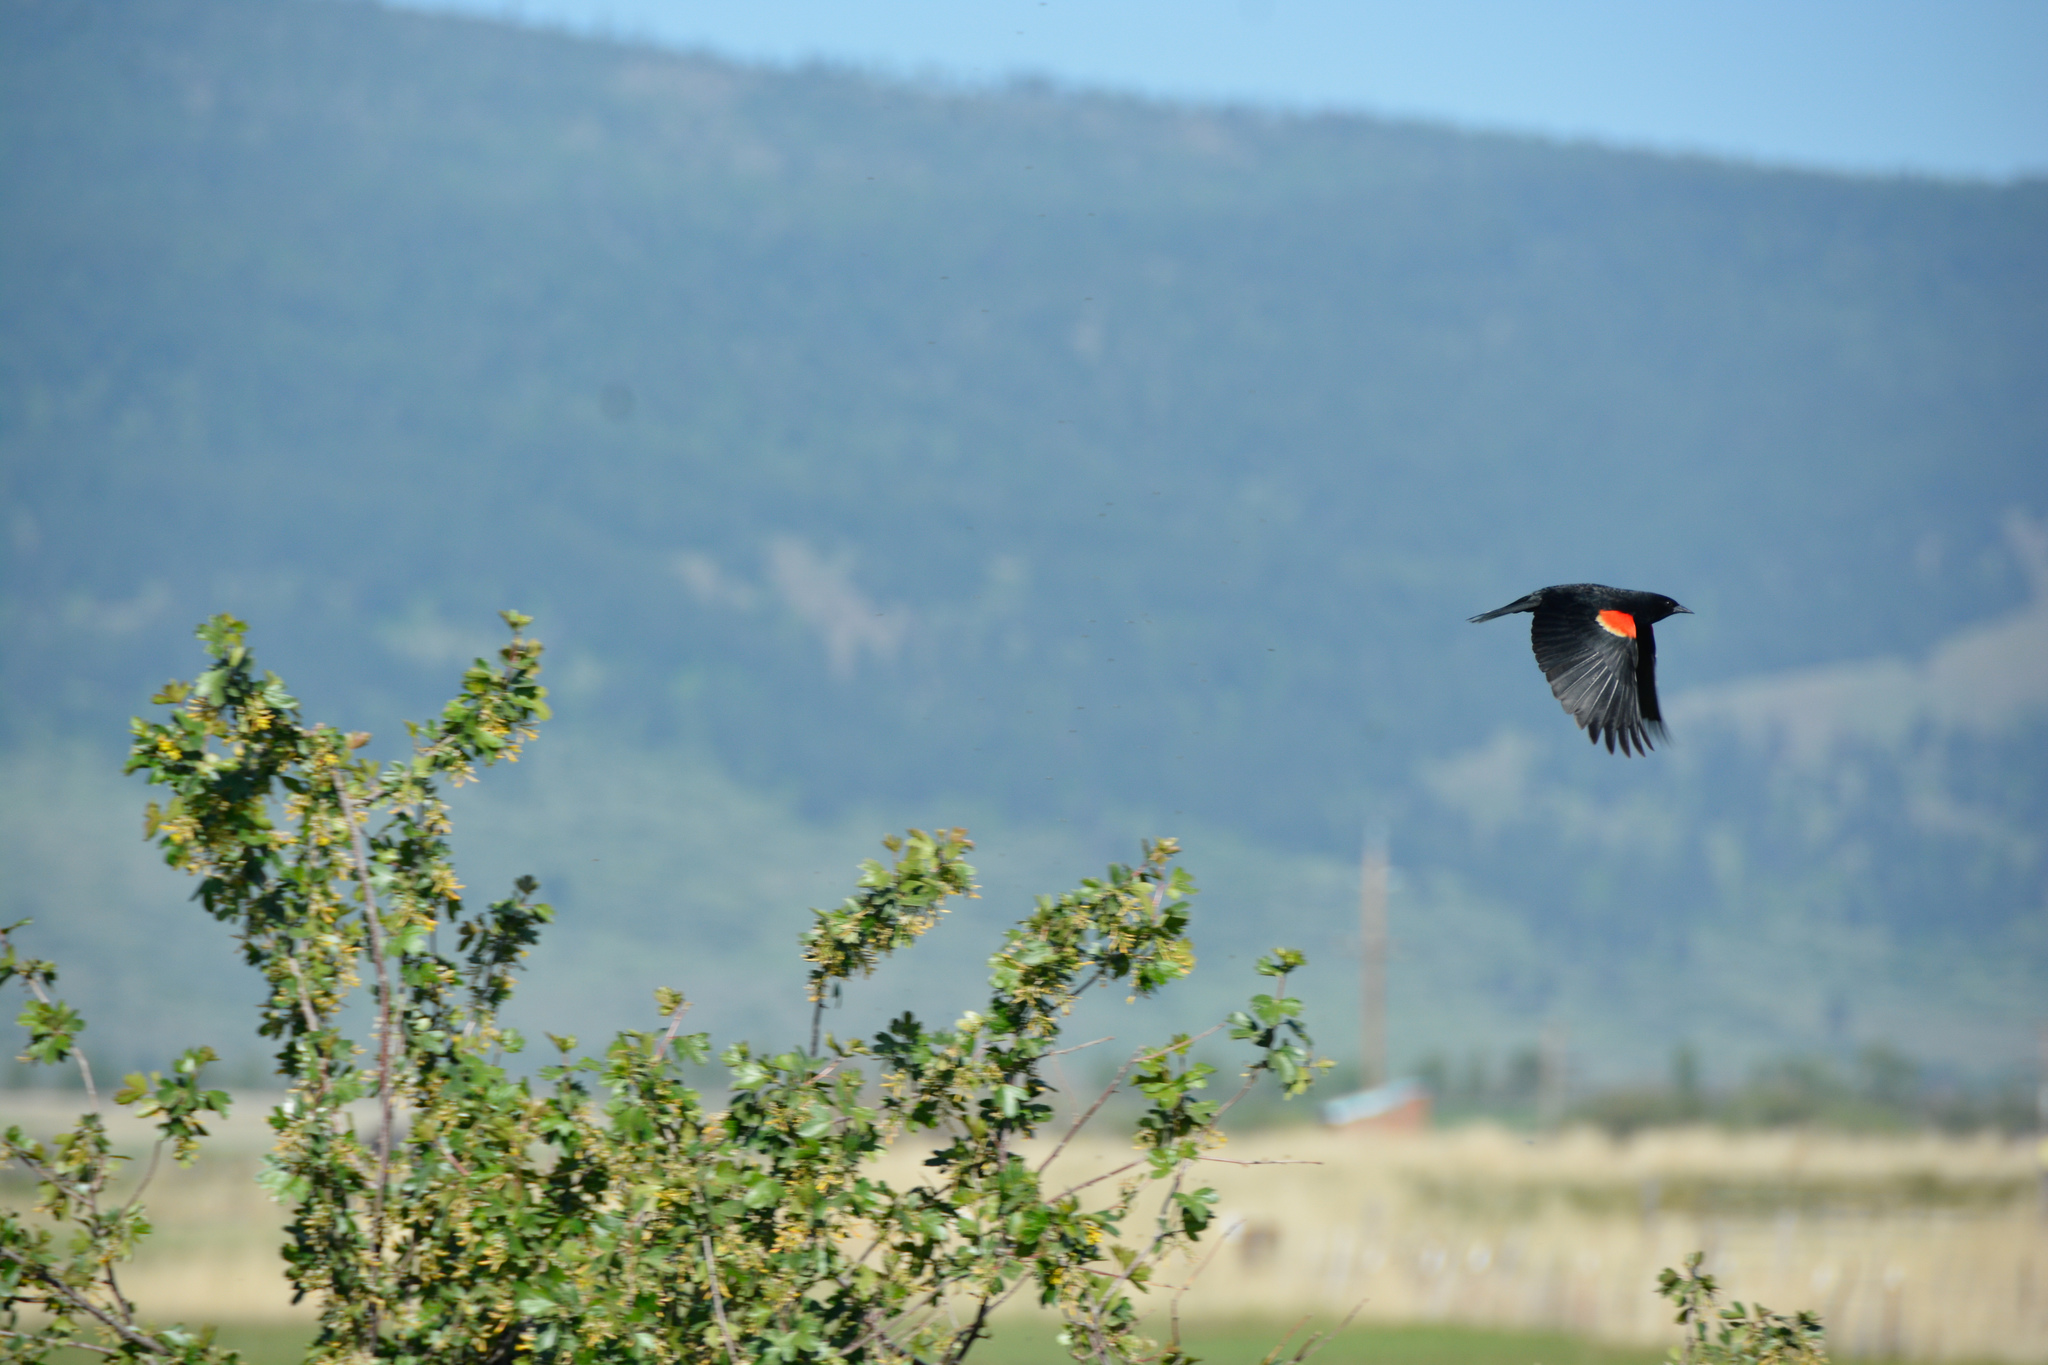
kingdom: Animalia
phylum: Chordata
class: Aves
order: Passeriformes
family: Icteridae
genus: Agelaius
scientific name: Agelaius phoeniceus
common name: Red-winged blackbird
